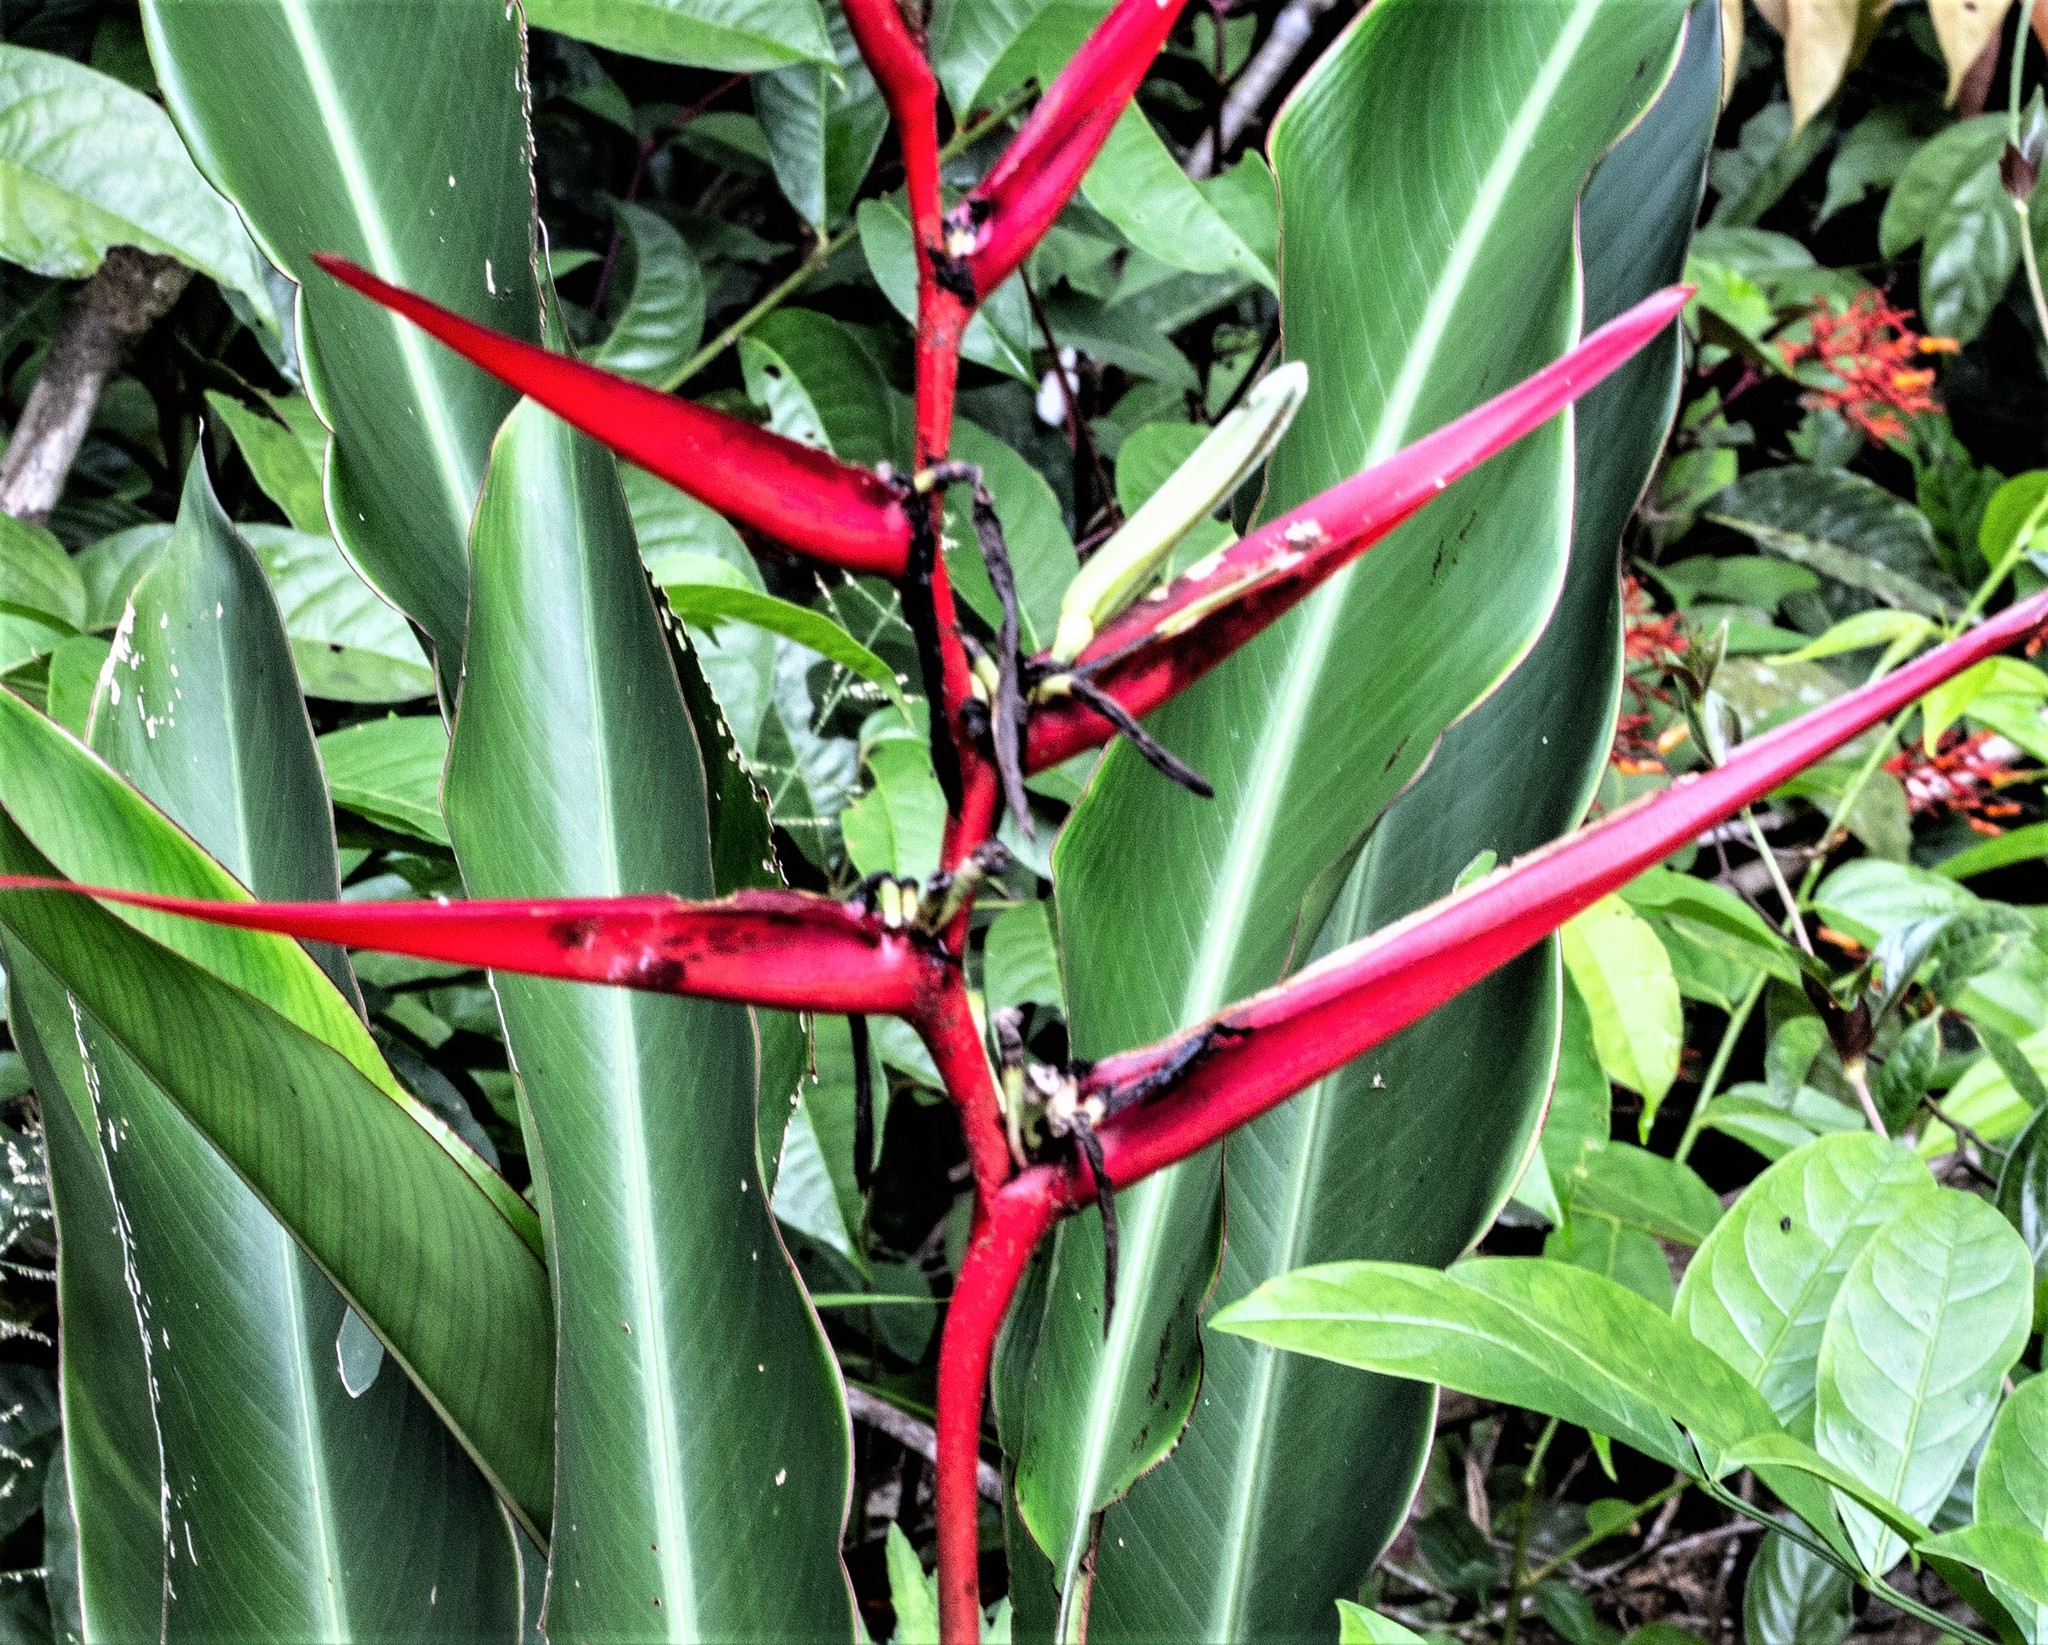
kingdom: Plantae
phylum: Tracheophyta
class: Liliopsida
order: Zingiberales
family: Heliconiaceae
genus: Heliconia
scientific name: Heliconia acuminata
